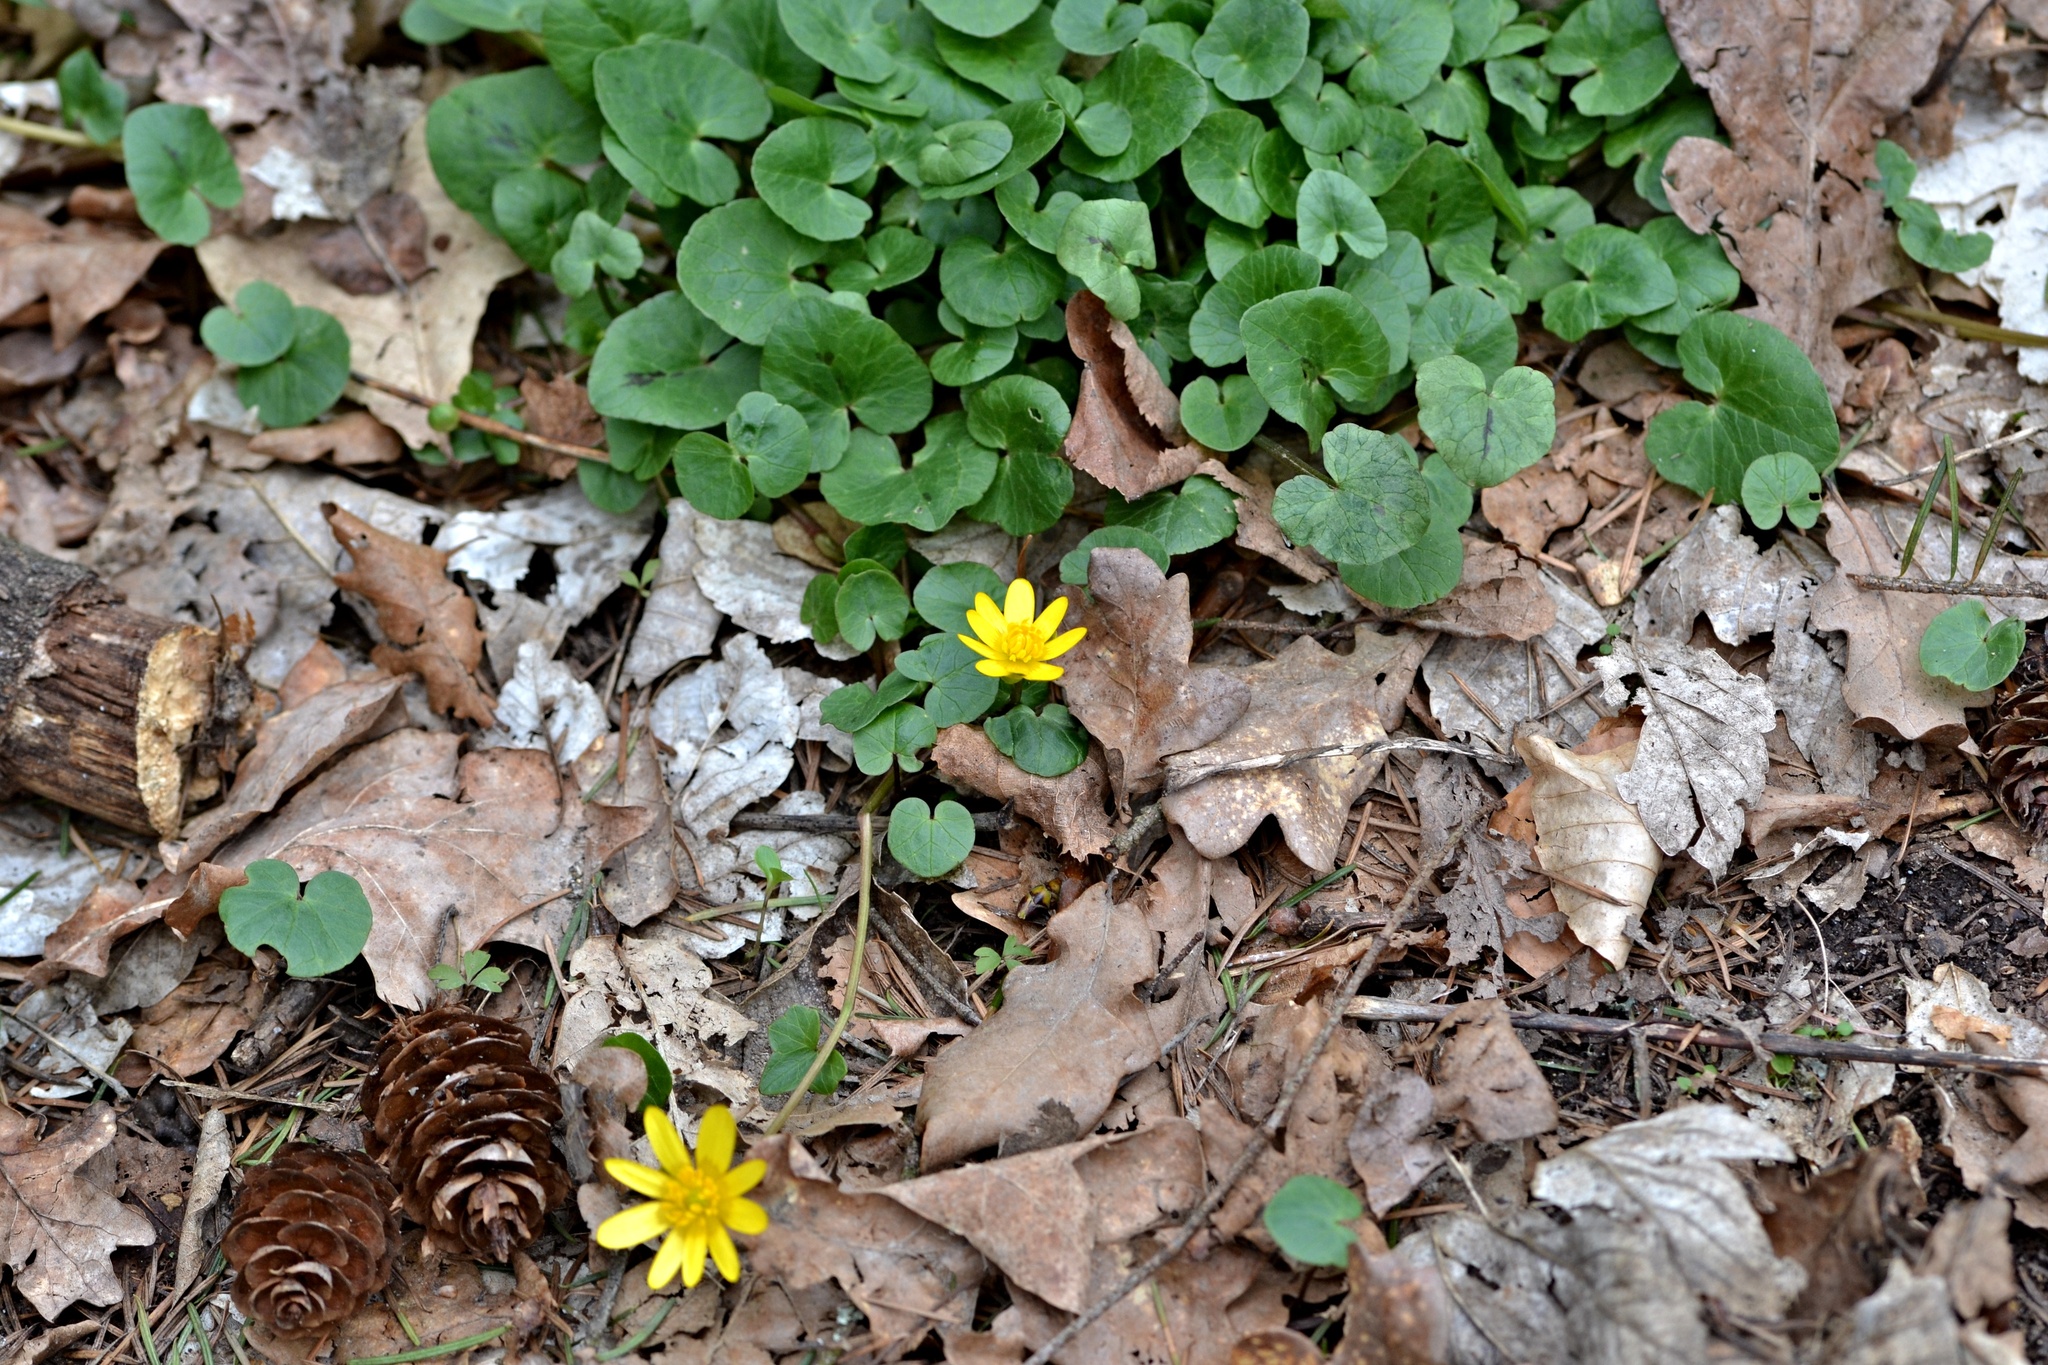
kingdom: Plantae
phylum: Tracheophyta
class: Magnoliopsida
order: Ranunculales
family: Ranunculaceae
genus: Ficaria
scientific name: Ficaria verna
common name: Lesser celandine
